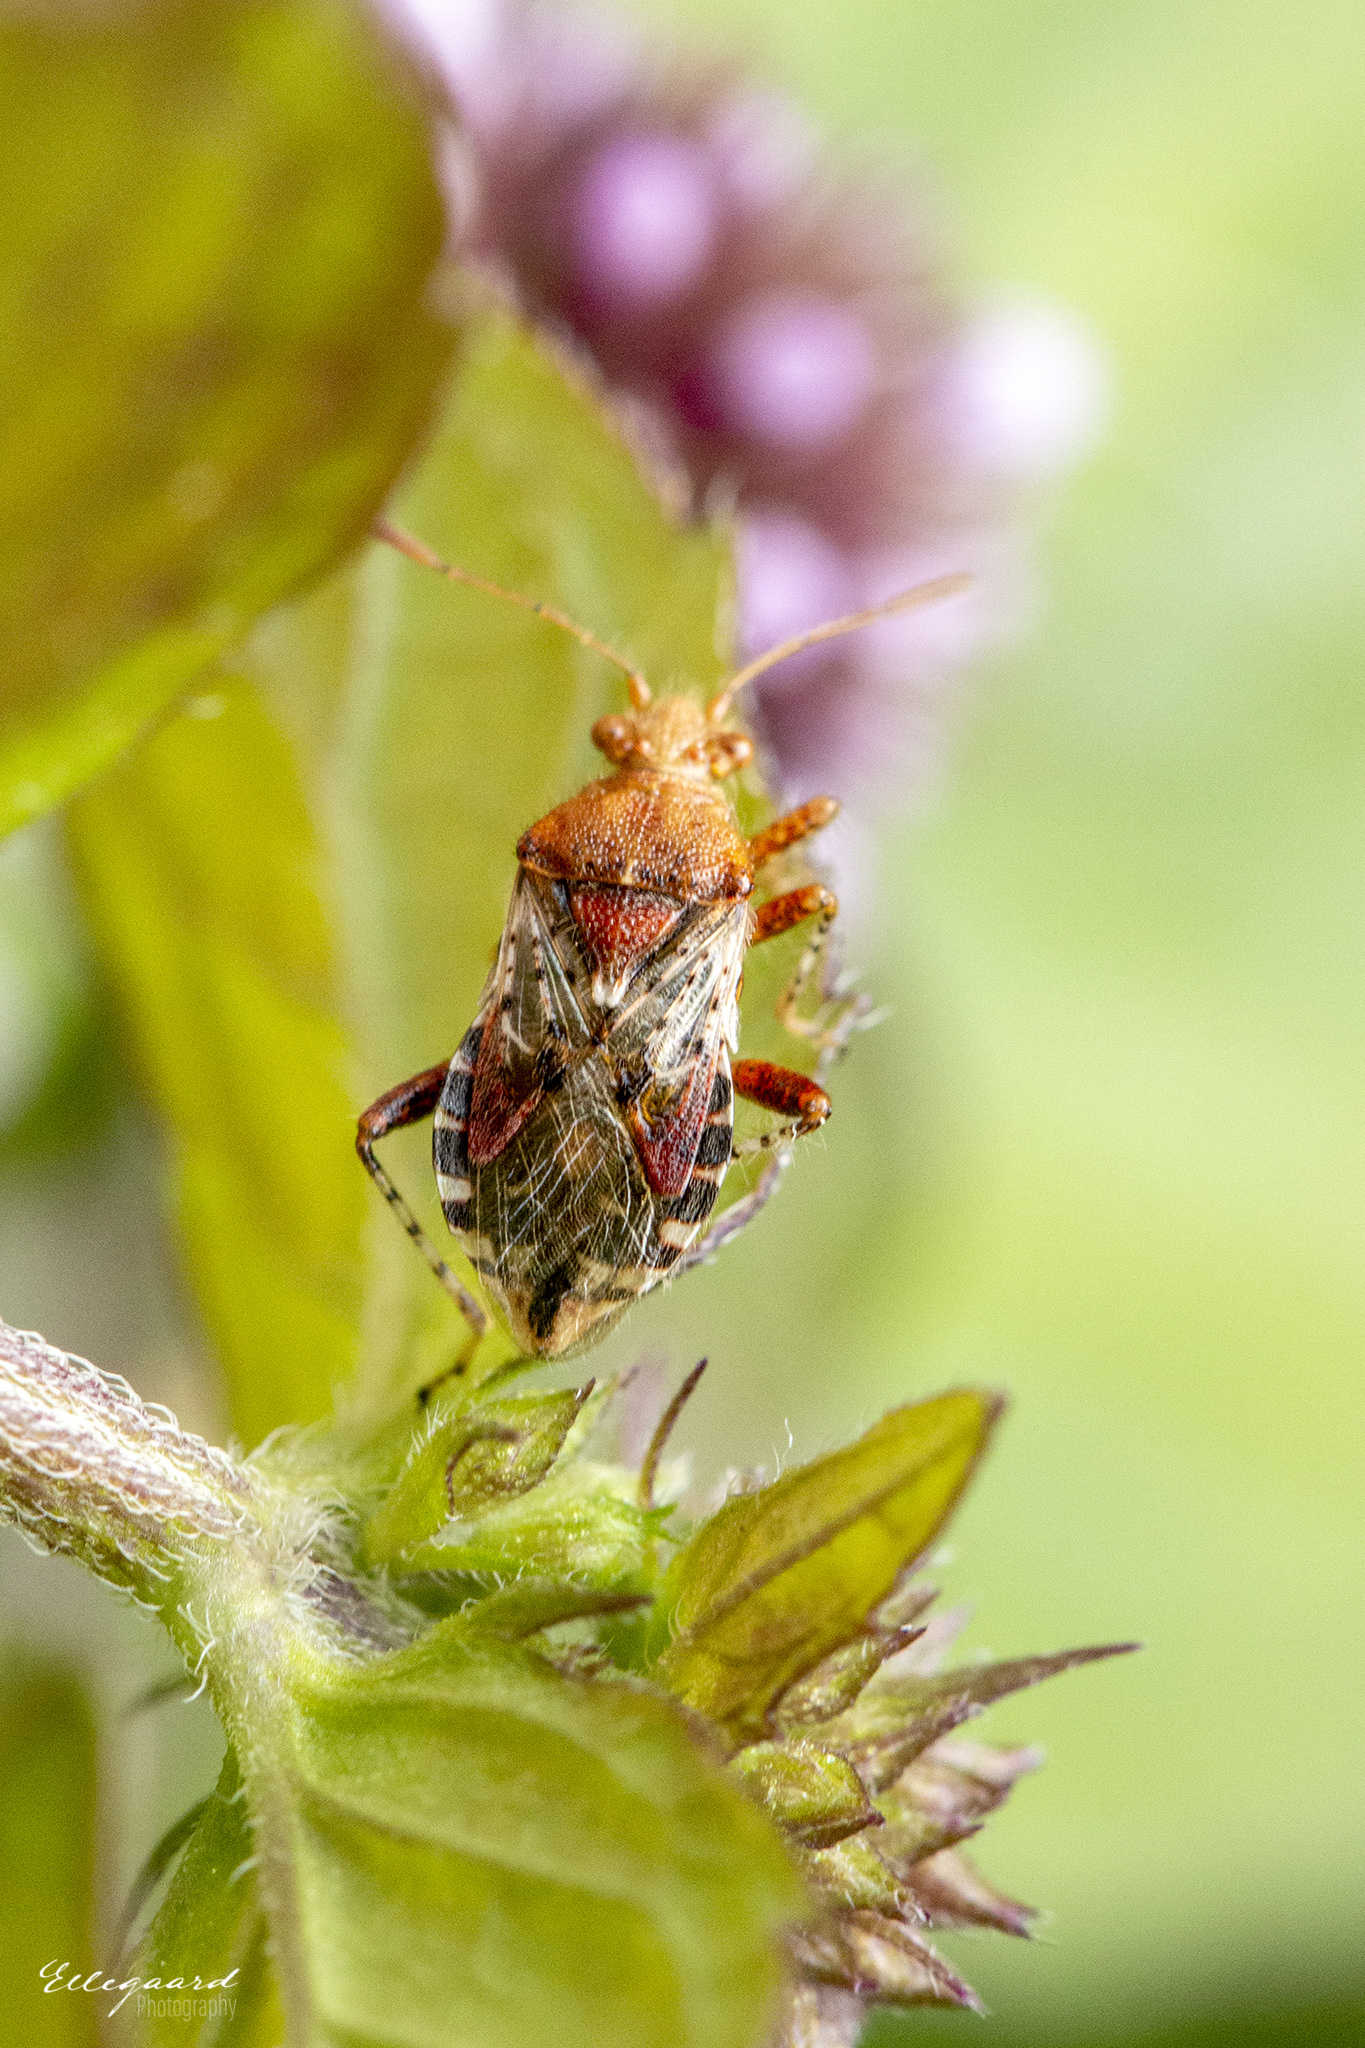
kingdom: Animalia
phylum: Arthropoda
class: Insecta
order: Hemiptera
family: Rhopalidae
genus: Rhopalus
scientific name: Rhopalus subrufus
